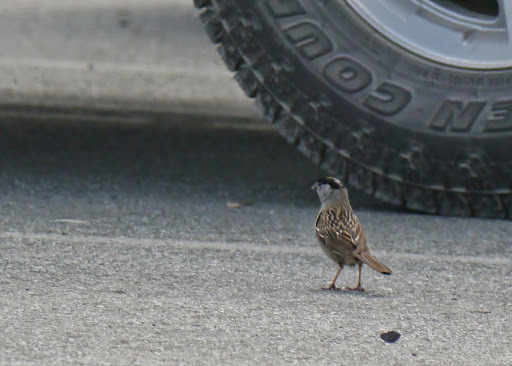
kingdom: Animalia
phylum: Chordata
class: Aves
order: Passeriformes
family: Passerellidae
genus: Zonotrichia
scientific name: Zonotrichia atricapilla
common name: Golden-crowned sparrow
